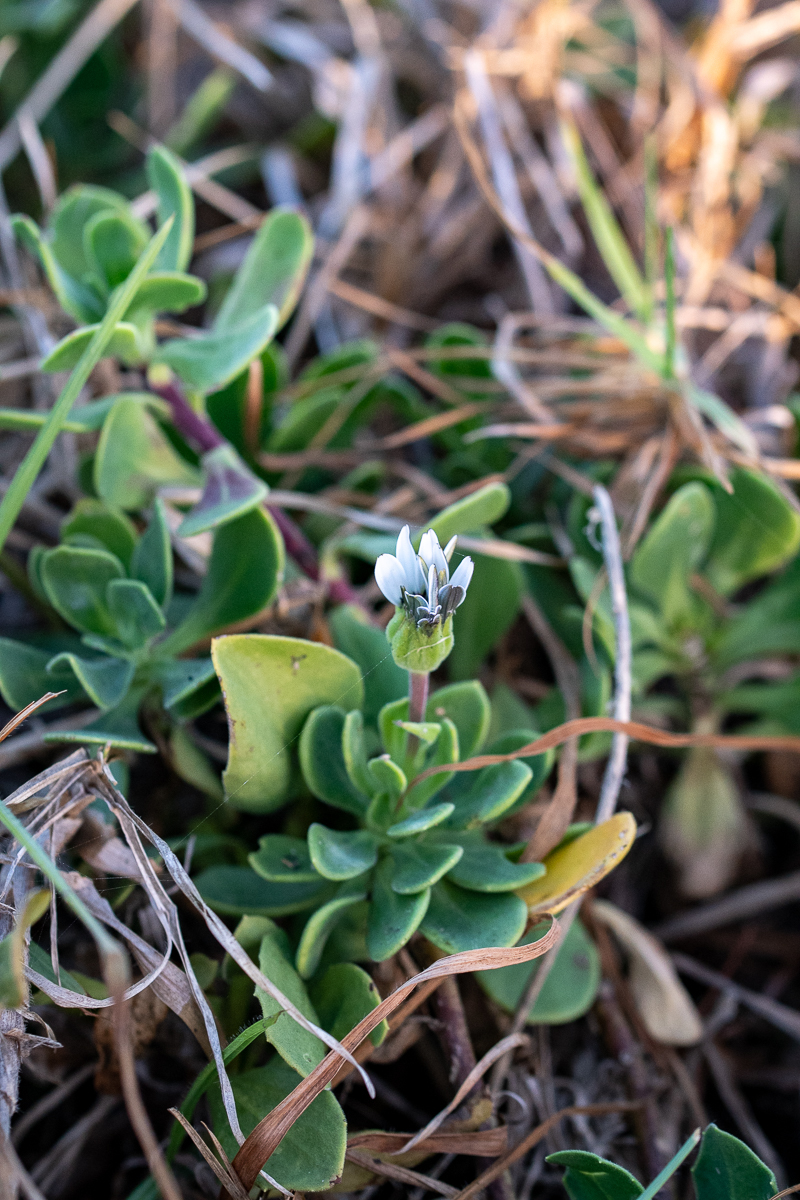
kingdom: Plantae
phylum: Tracheophyta
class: Magnoliopsida
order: Asterales
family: Asteraceae
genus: Dimorphotheca
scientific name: Dimorphotheca fruticosa
